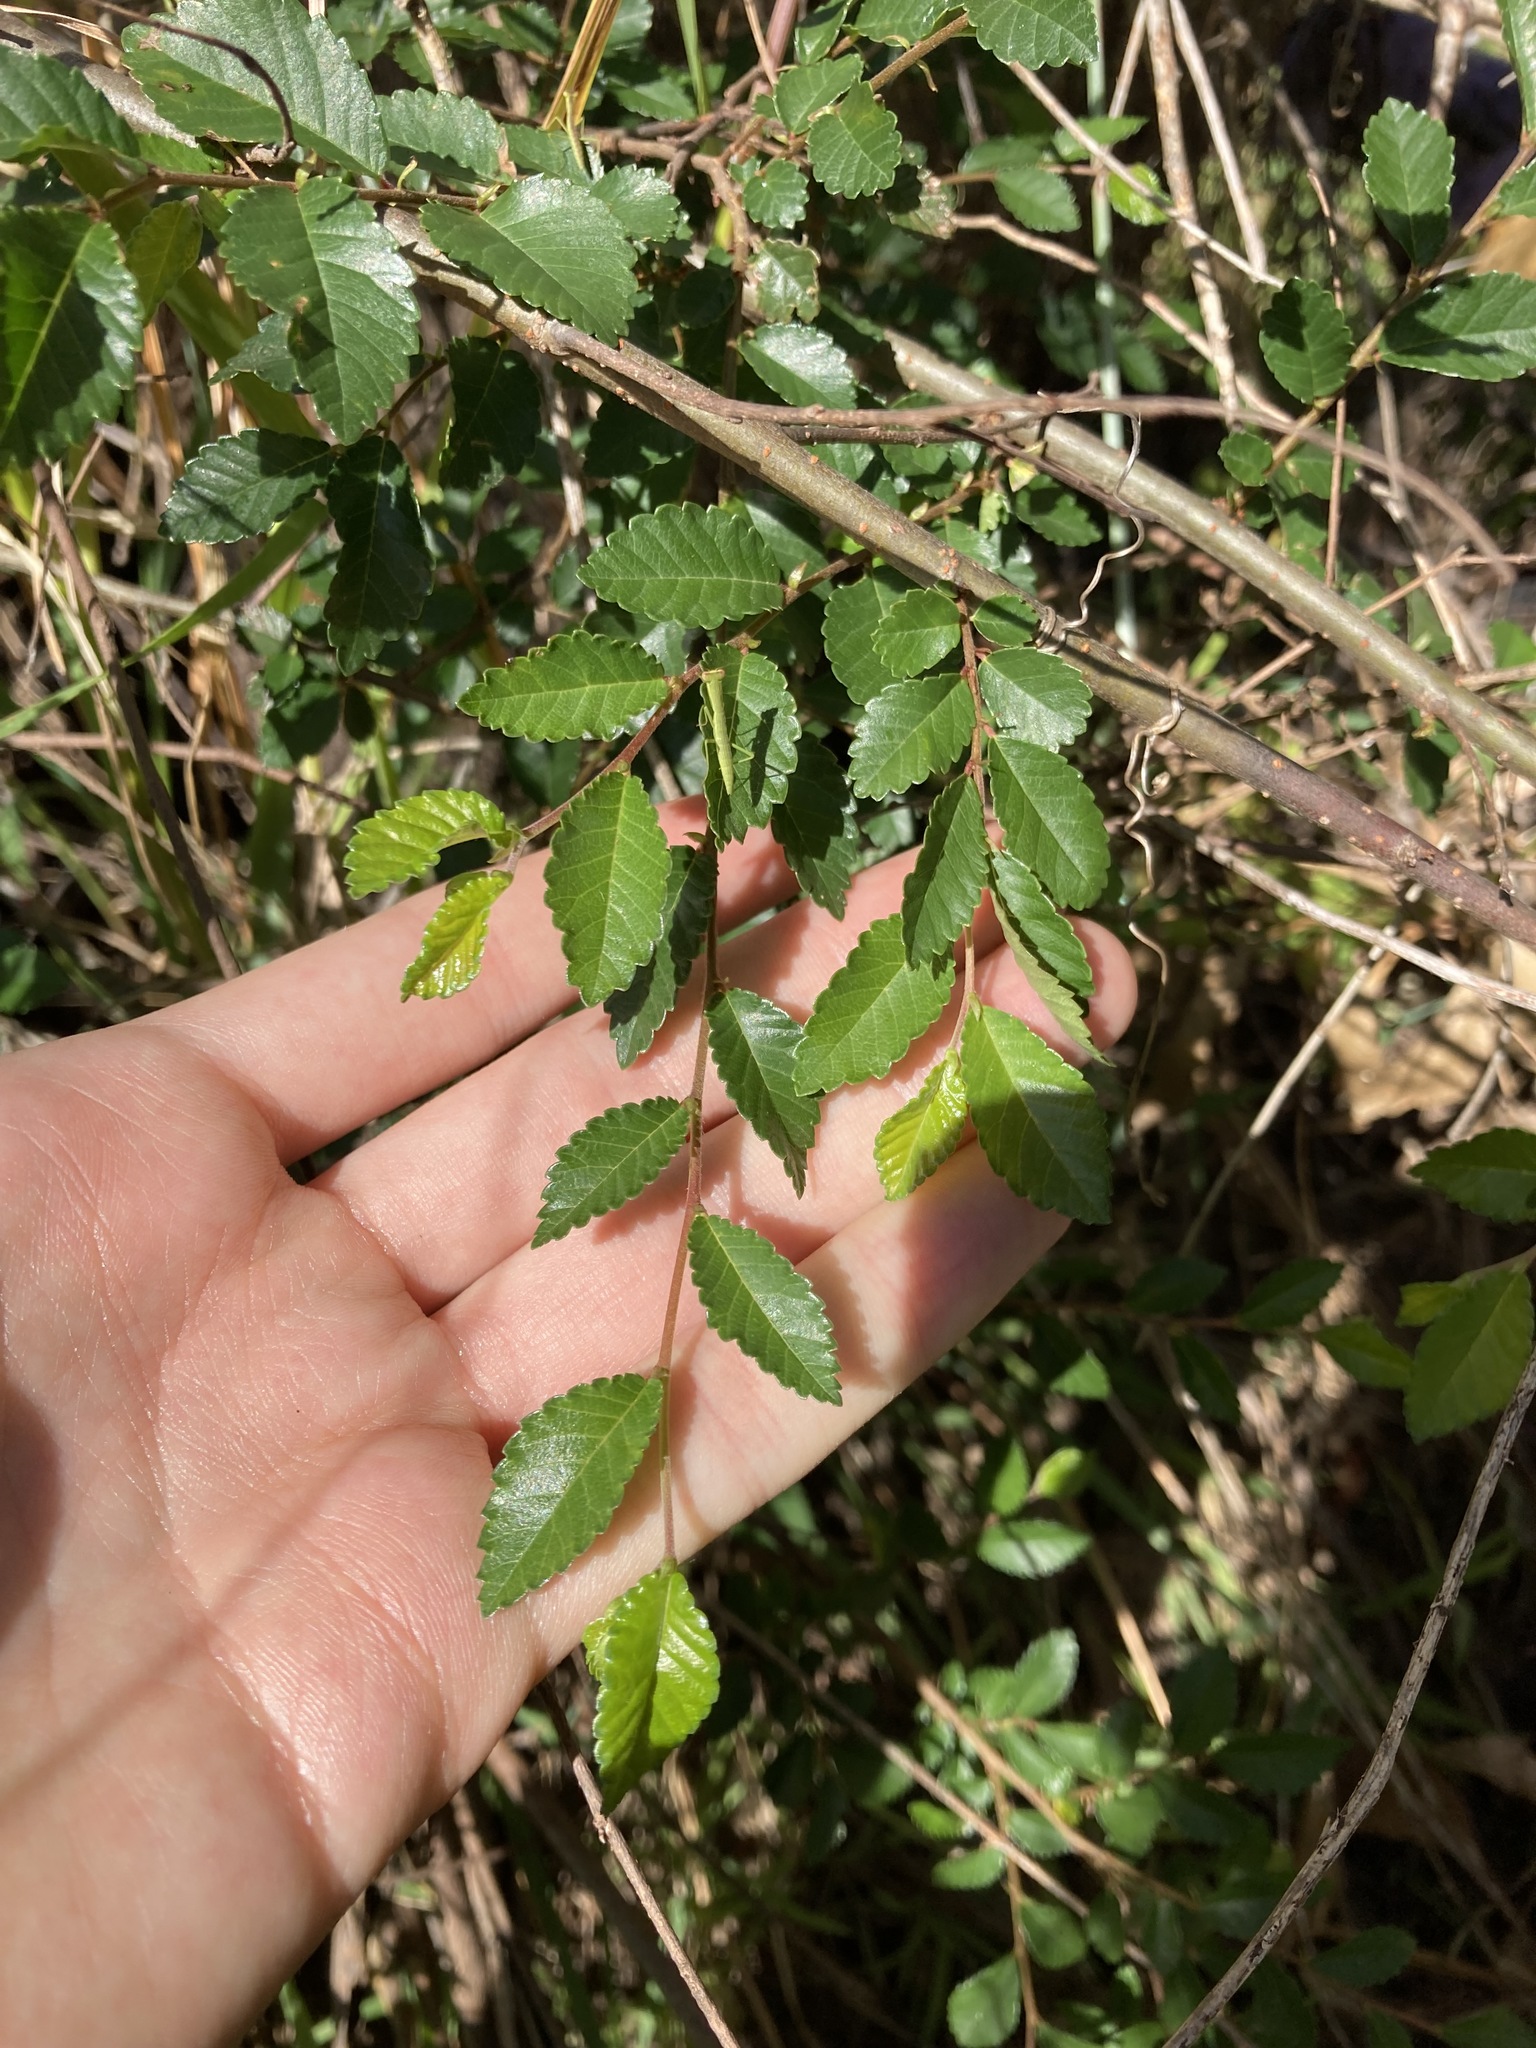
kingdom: Plantae
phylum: Tracheophyta
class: Magnoliopsida
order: Rosales
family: Ulmaceae
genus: Ulmus
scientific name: Ulmus parvifolia
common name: Chinese elm
